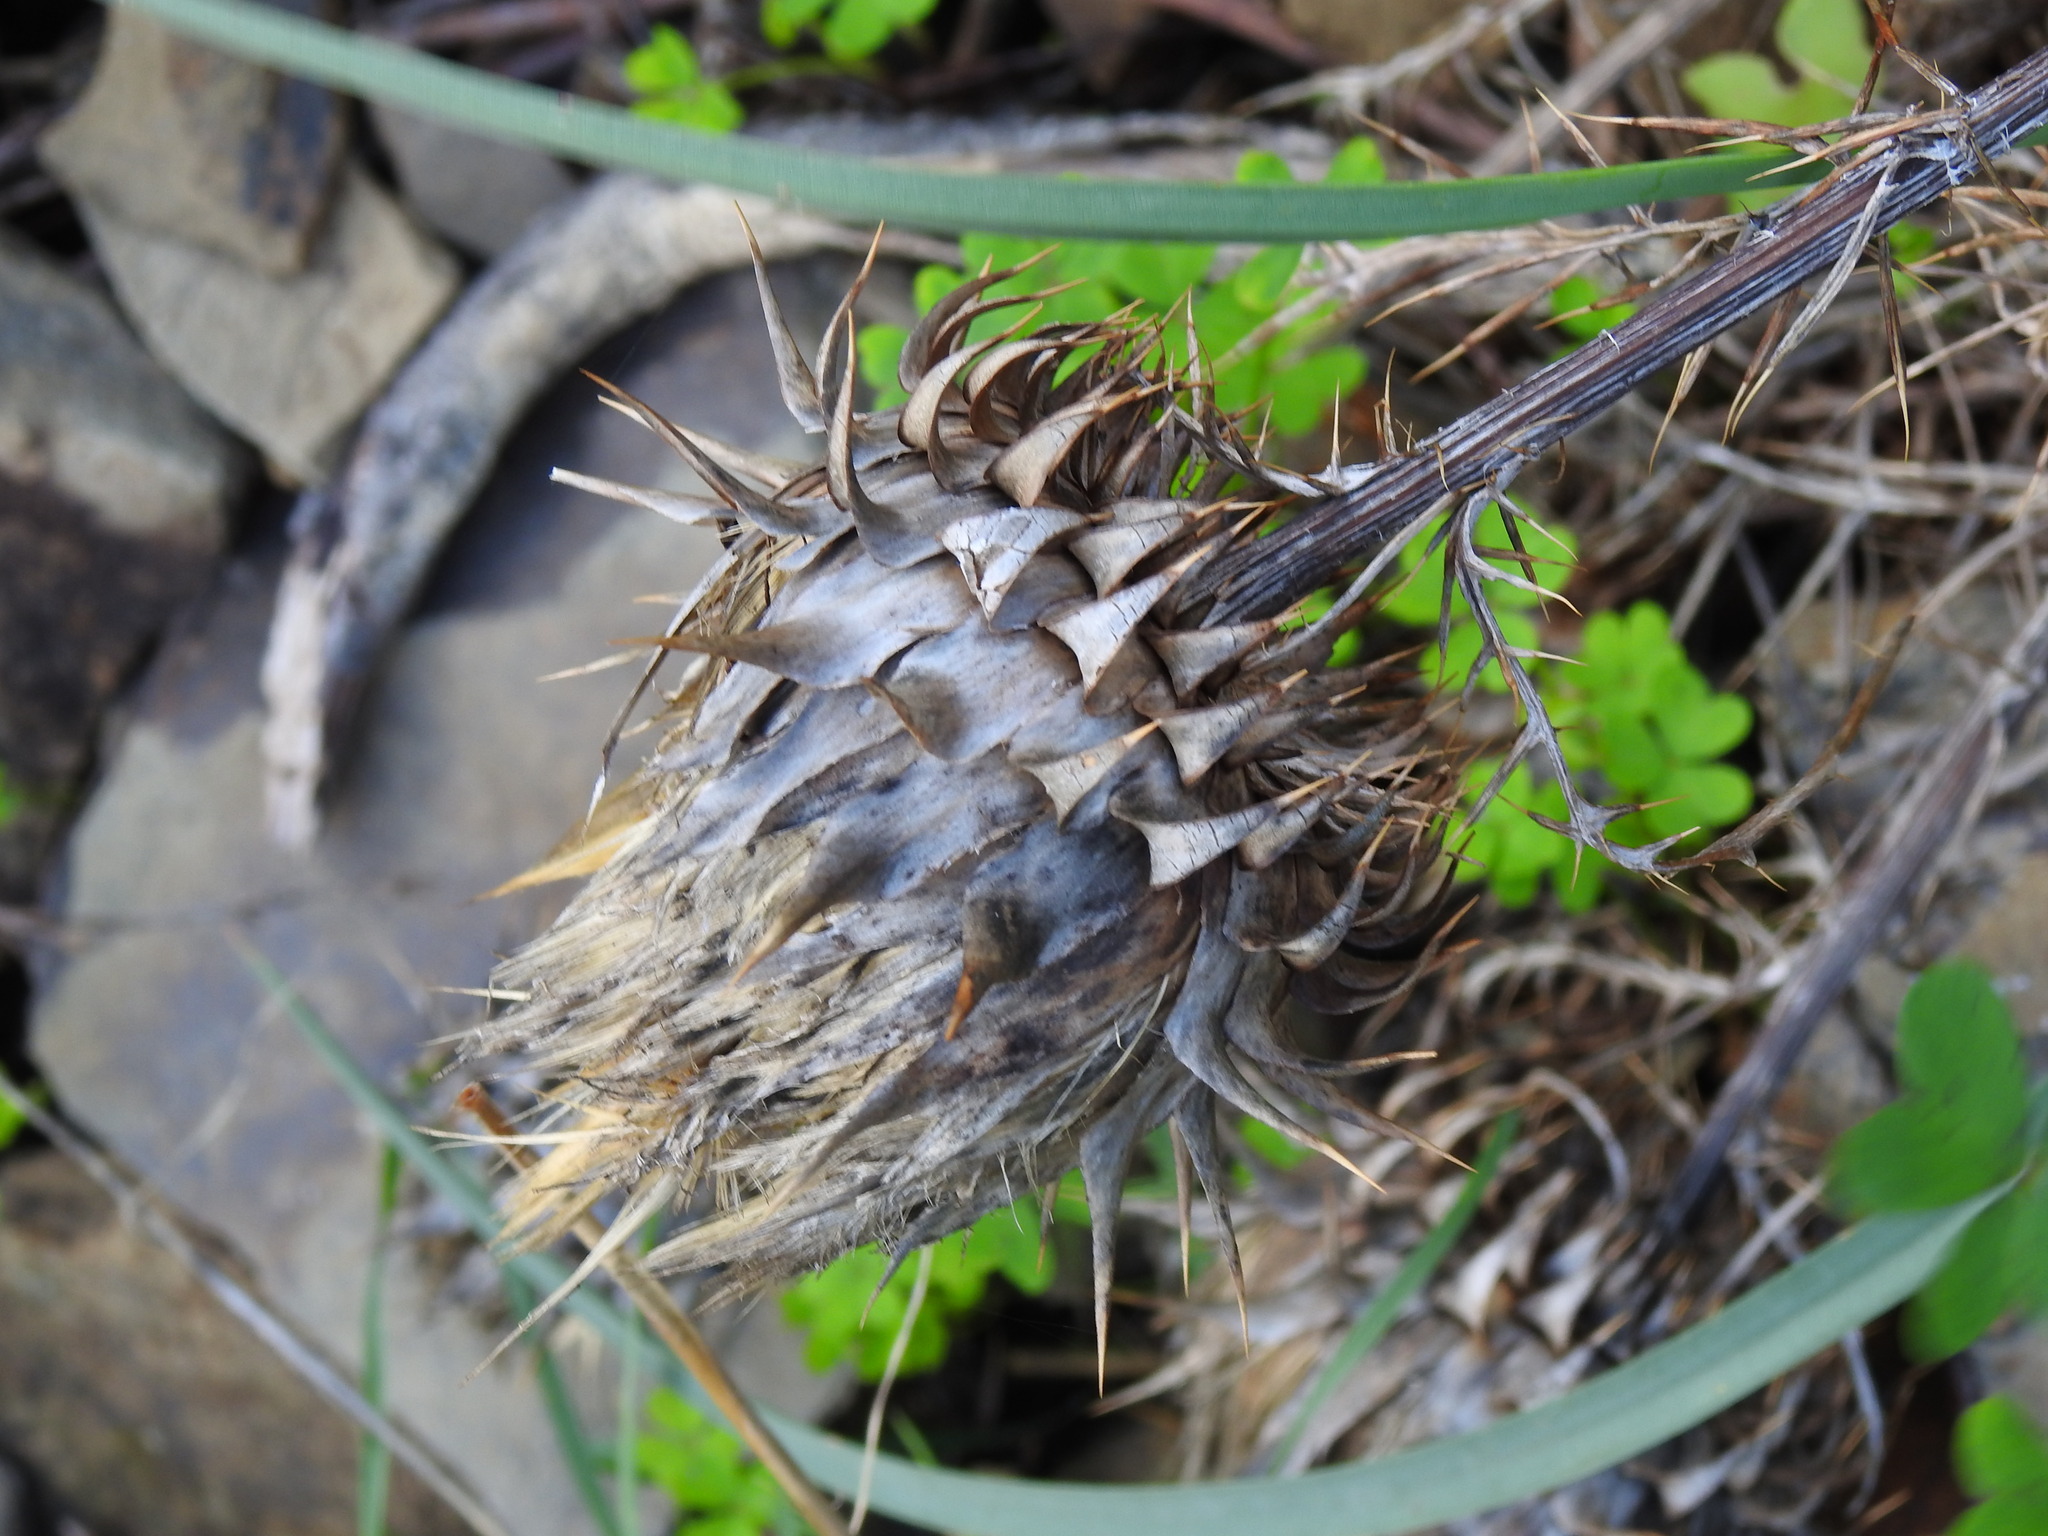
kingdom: Plantae
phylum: Tracheophyta
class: Magnoliopsida
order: Asterales
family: Asteraceae
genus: Cynara
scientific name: Cynara humilis
